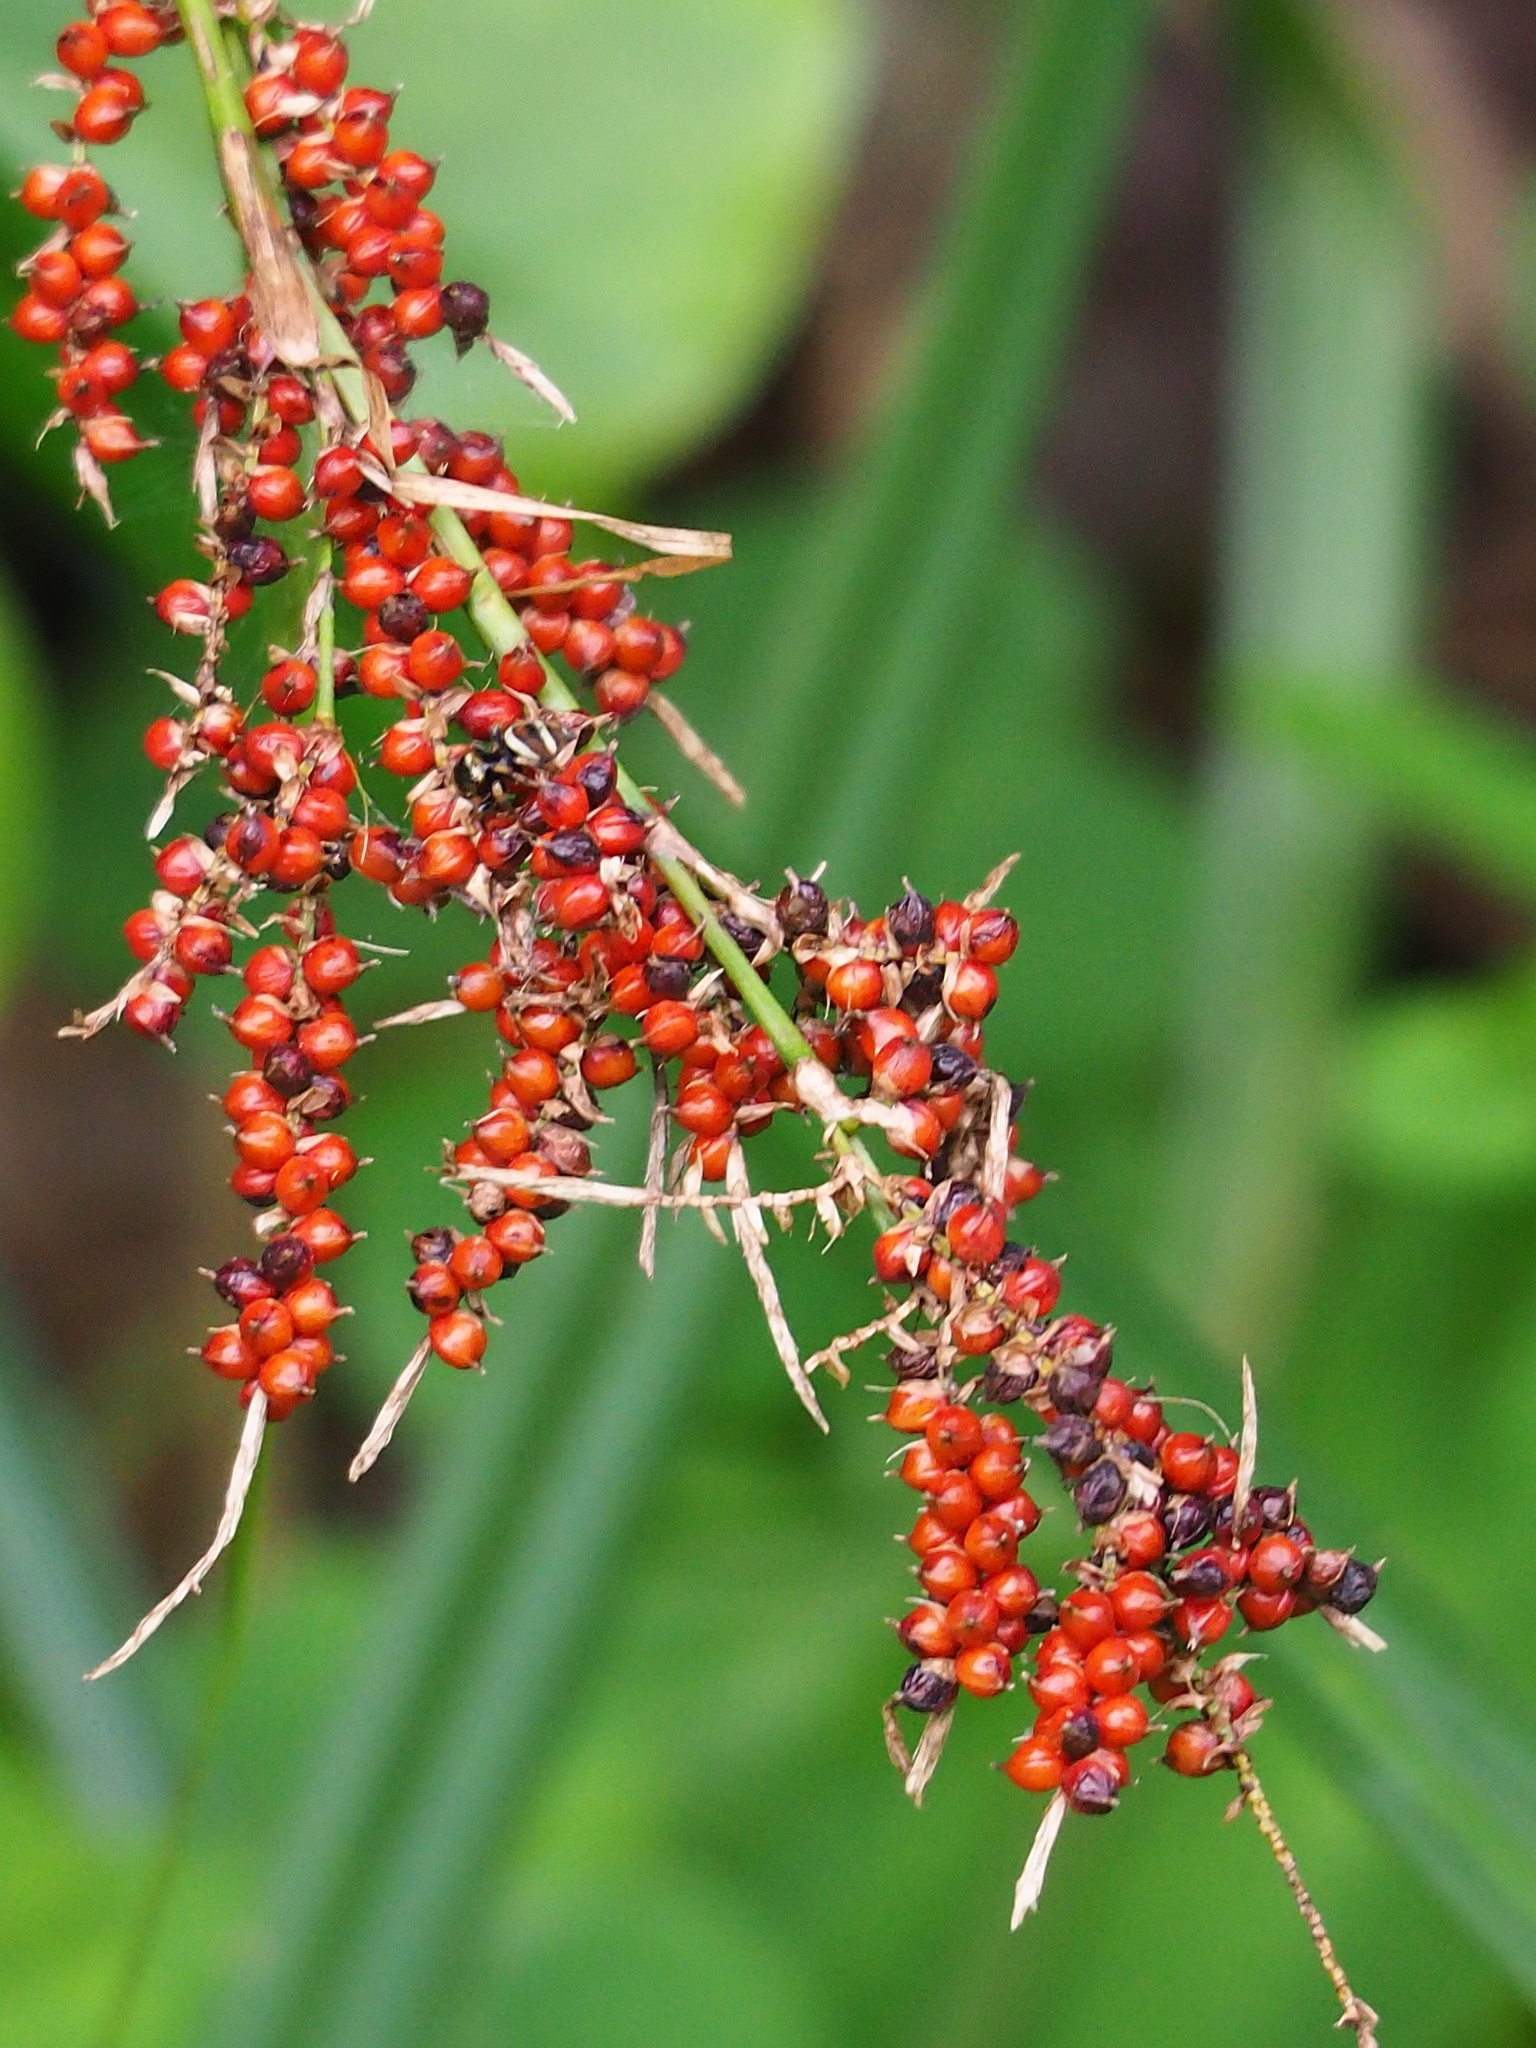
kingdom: Plantae
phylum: Tracheophyta
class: Liliopsida
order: Poales
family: Cyperaceae
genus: Carex
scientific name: Carex baccans
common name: Crimson seeded sedge
